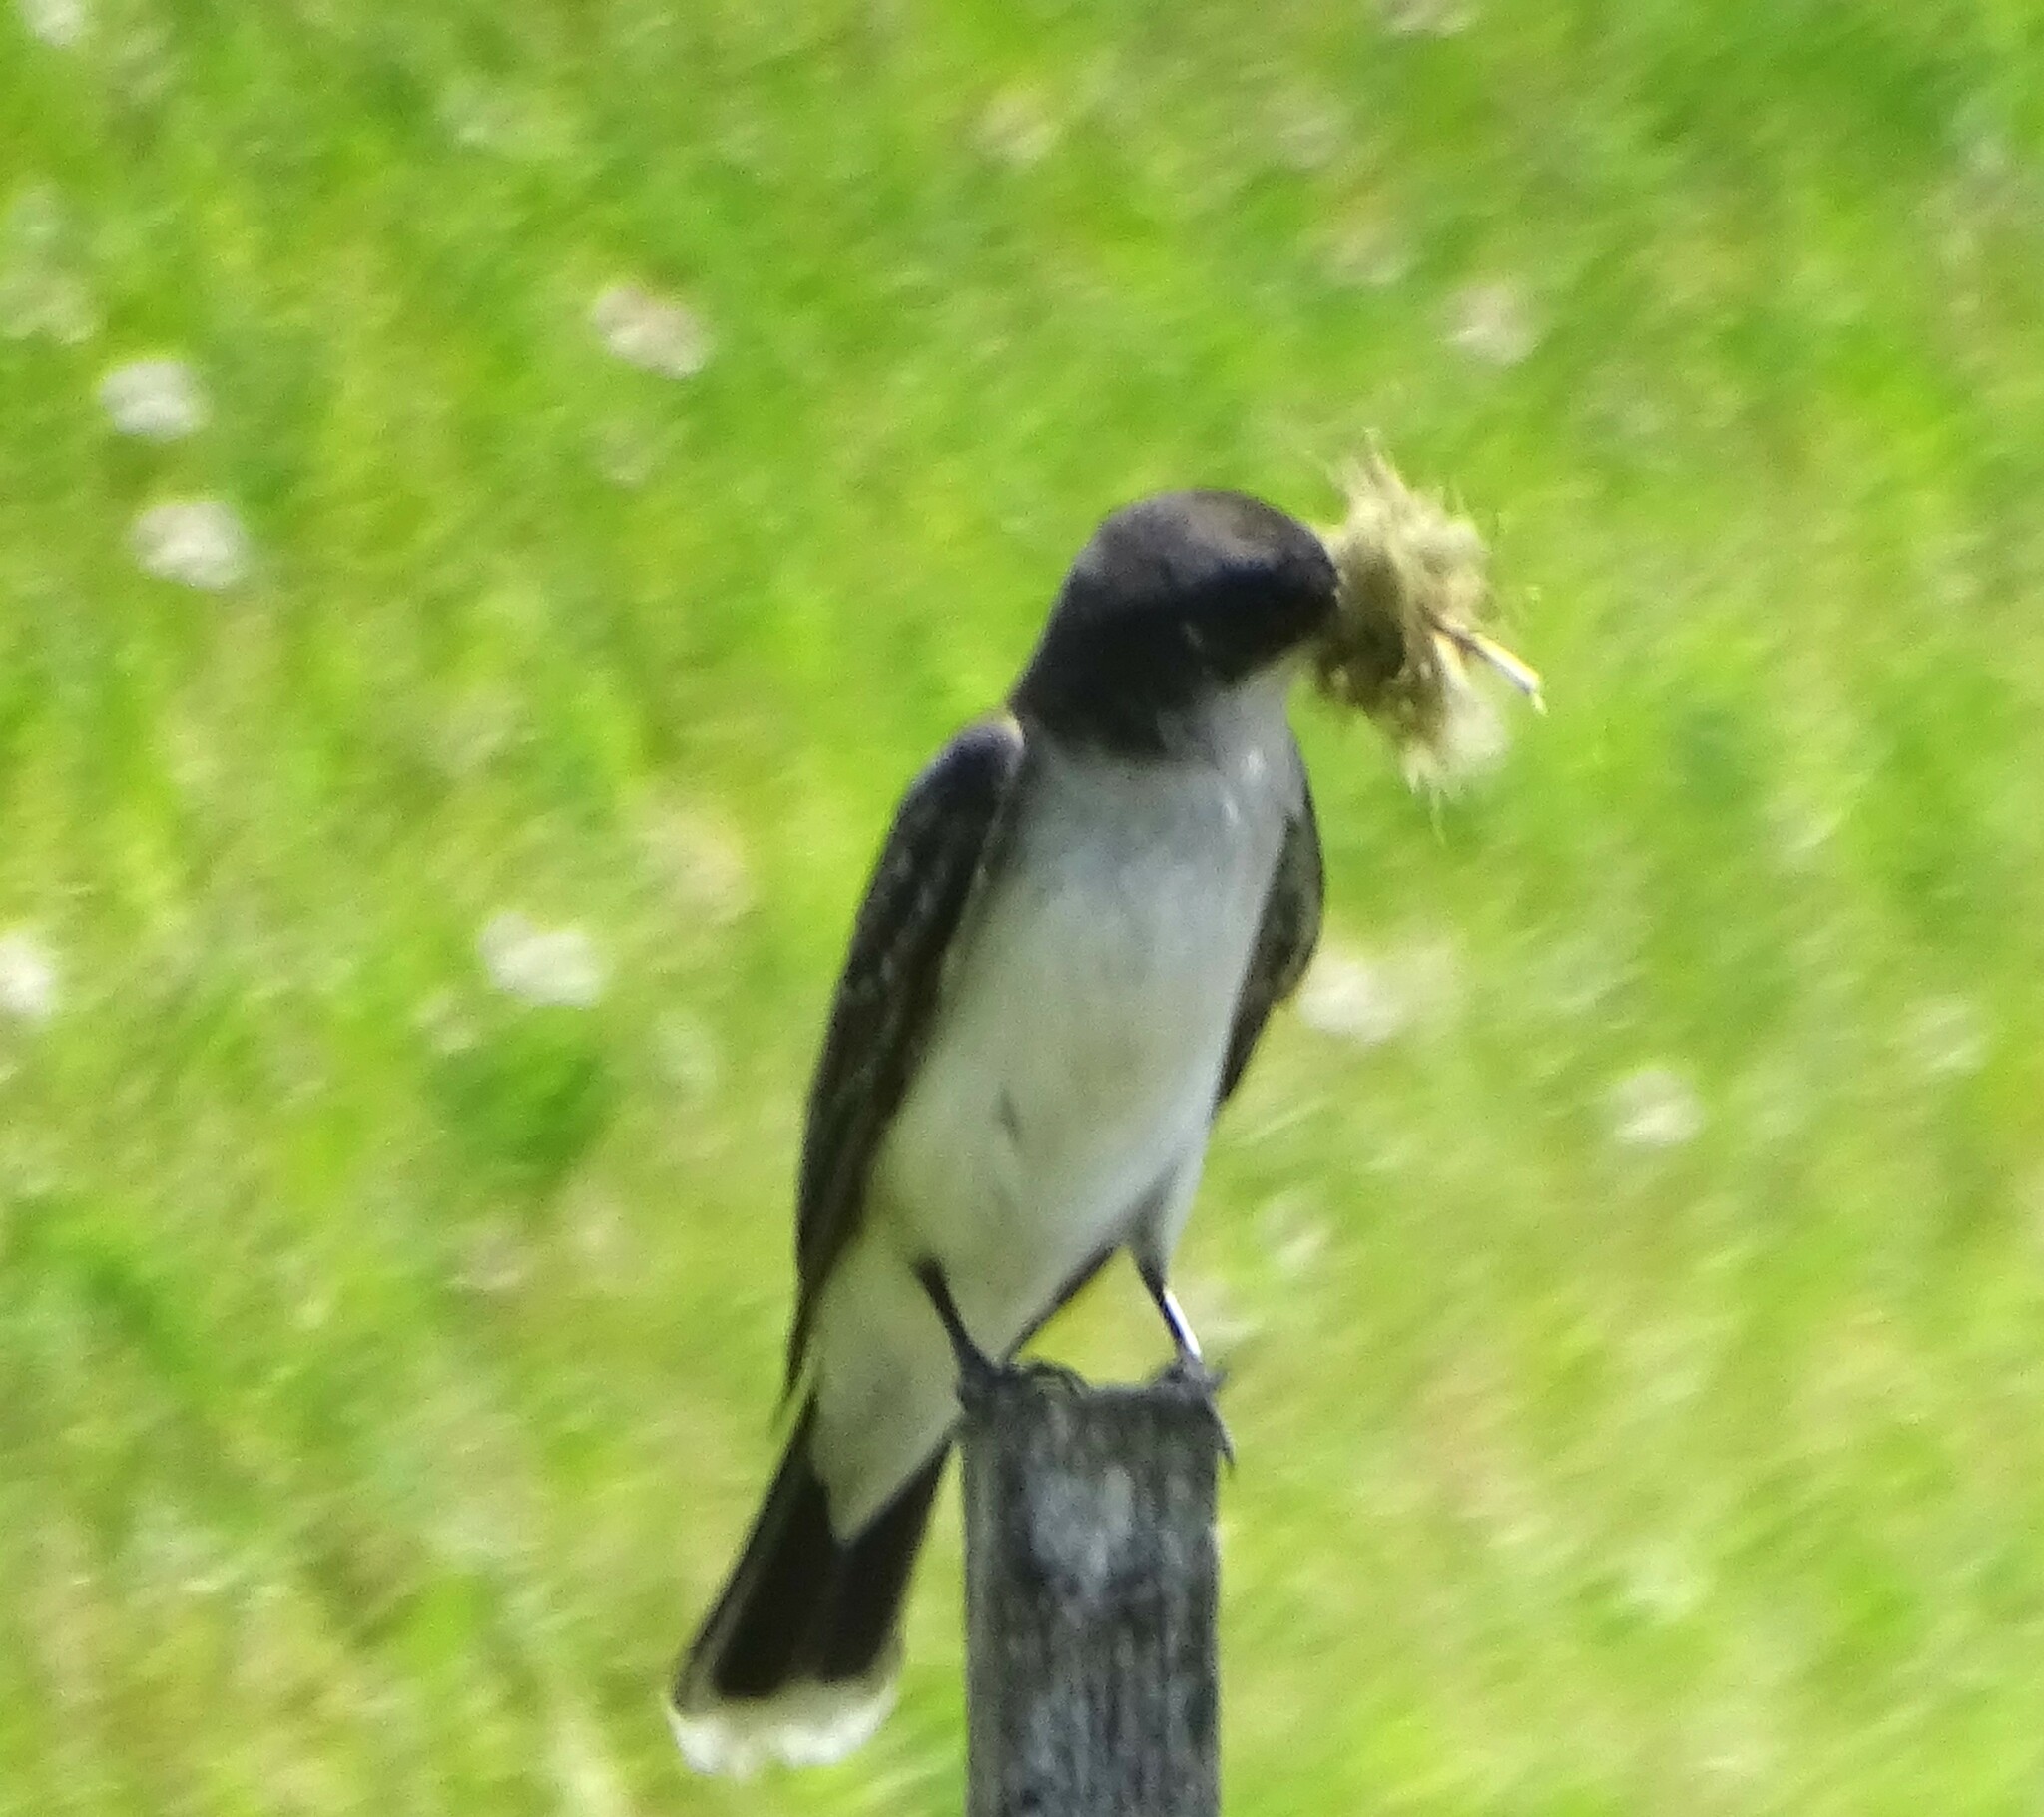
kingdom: Animalia
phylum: Chordata
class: Aves
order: Passeriformes
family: Tyrannidae
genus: Tyrannus
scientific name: Tyrannus tyrannus
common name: Eastern kingbird
